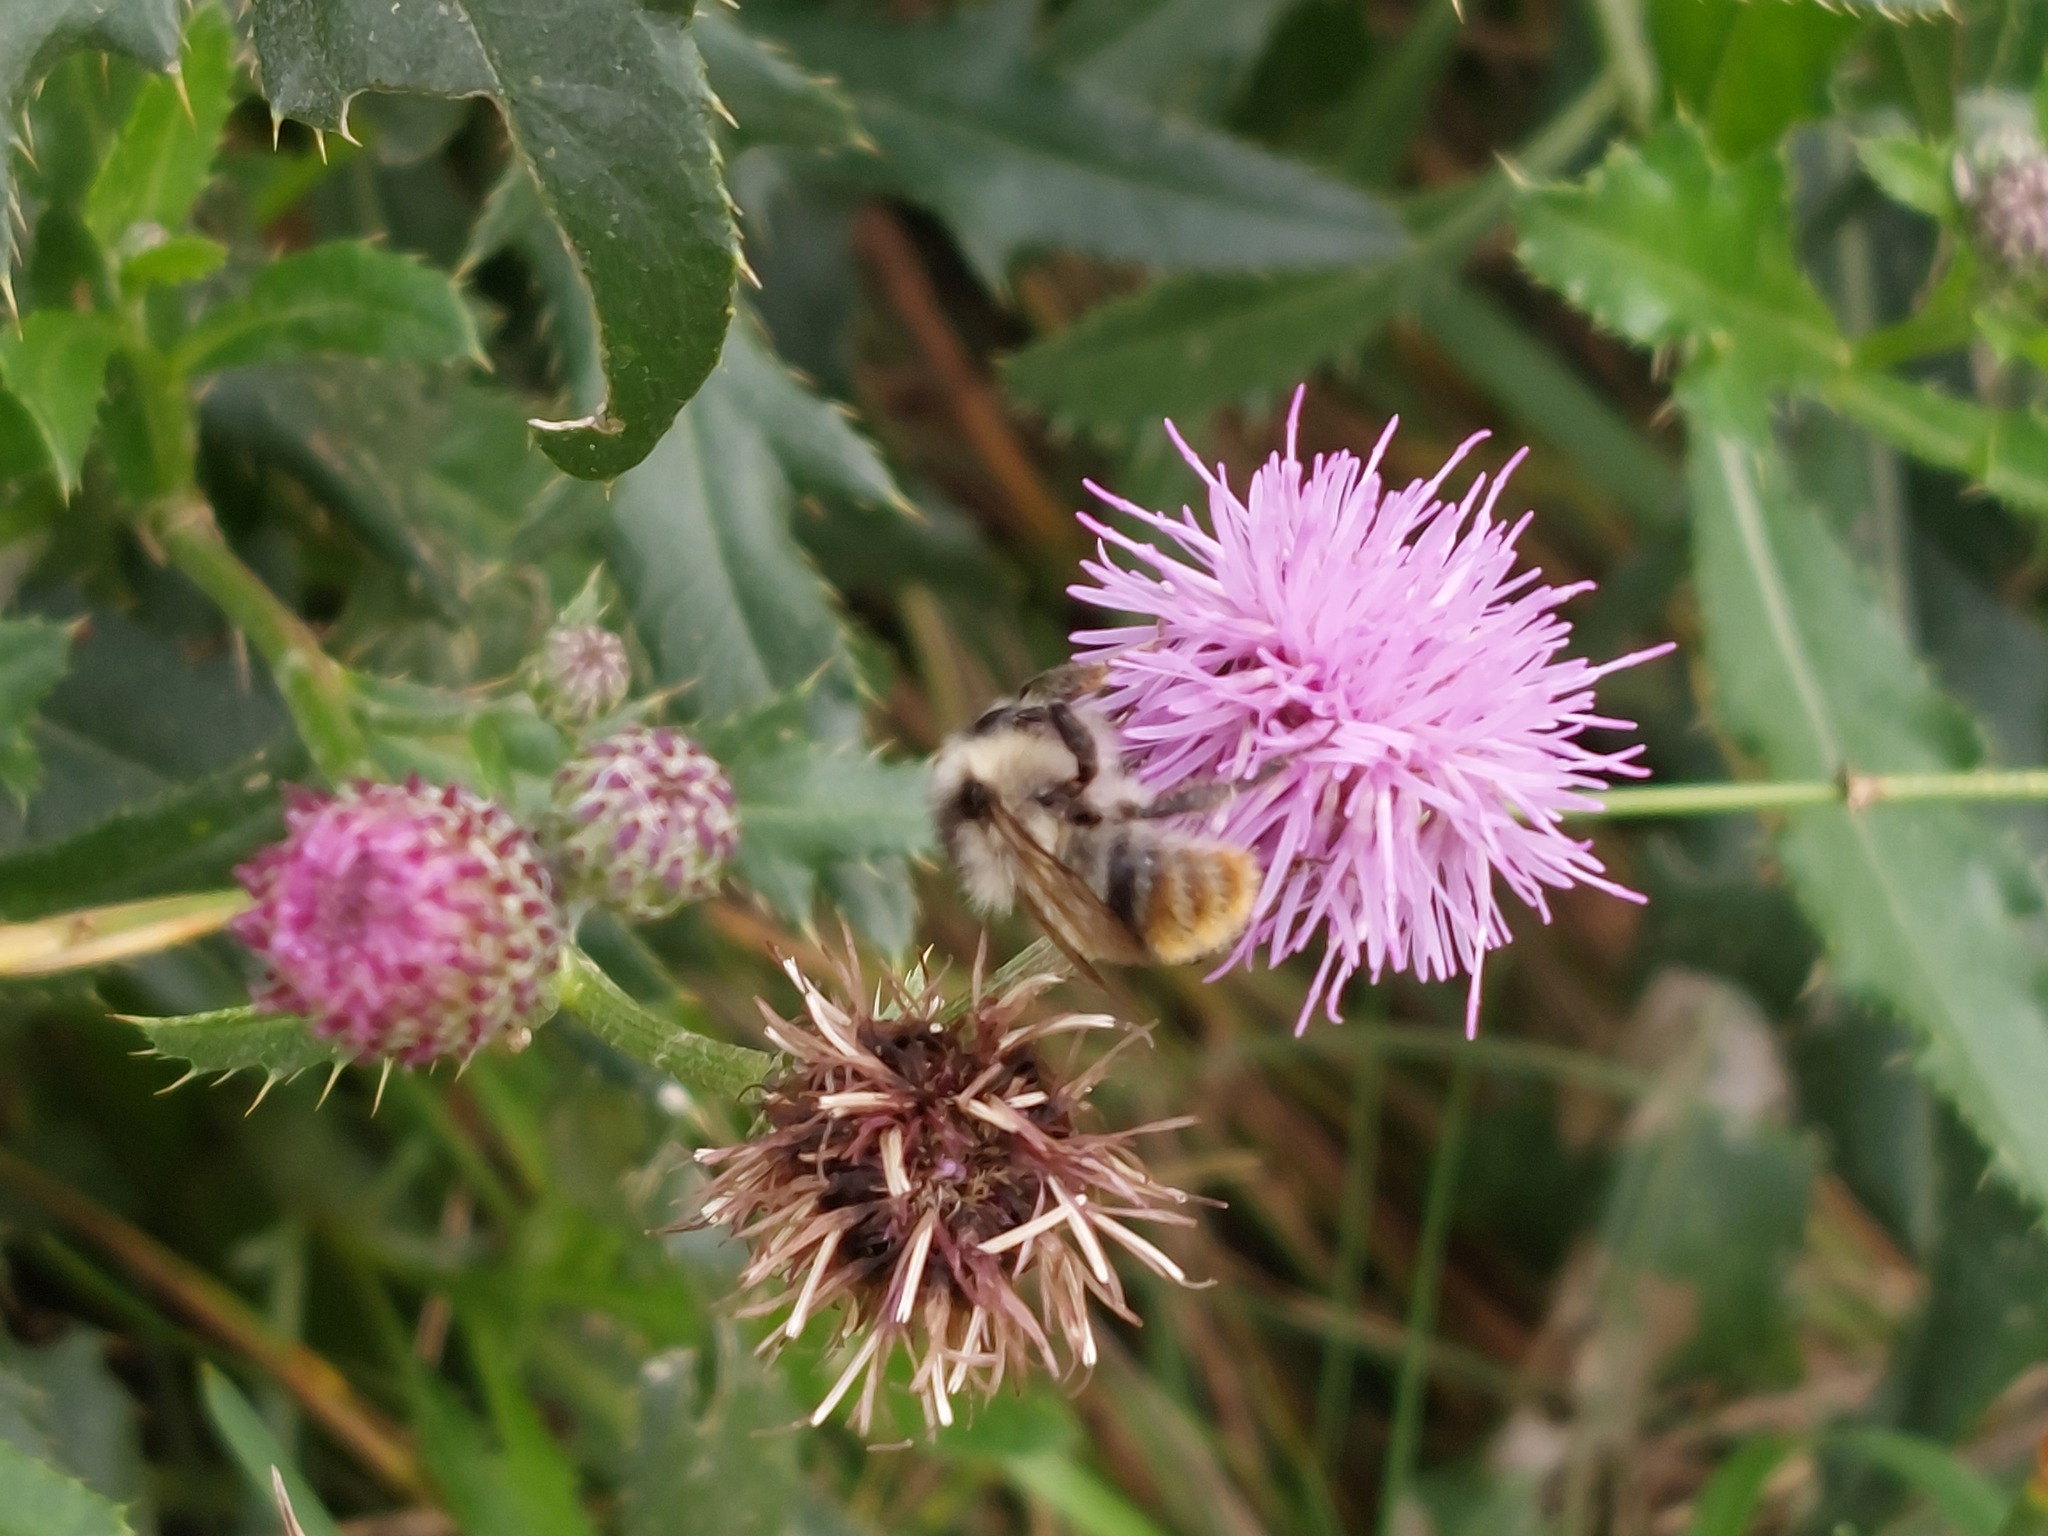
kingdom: Animalia
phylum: Arthropoda
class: Insecta
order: Hymenoptera
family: Apidae
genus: Bombus
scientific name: Bombus sylvarum
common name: Shrill carder bee
